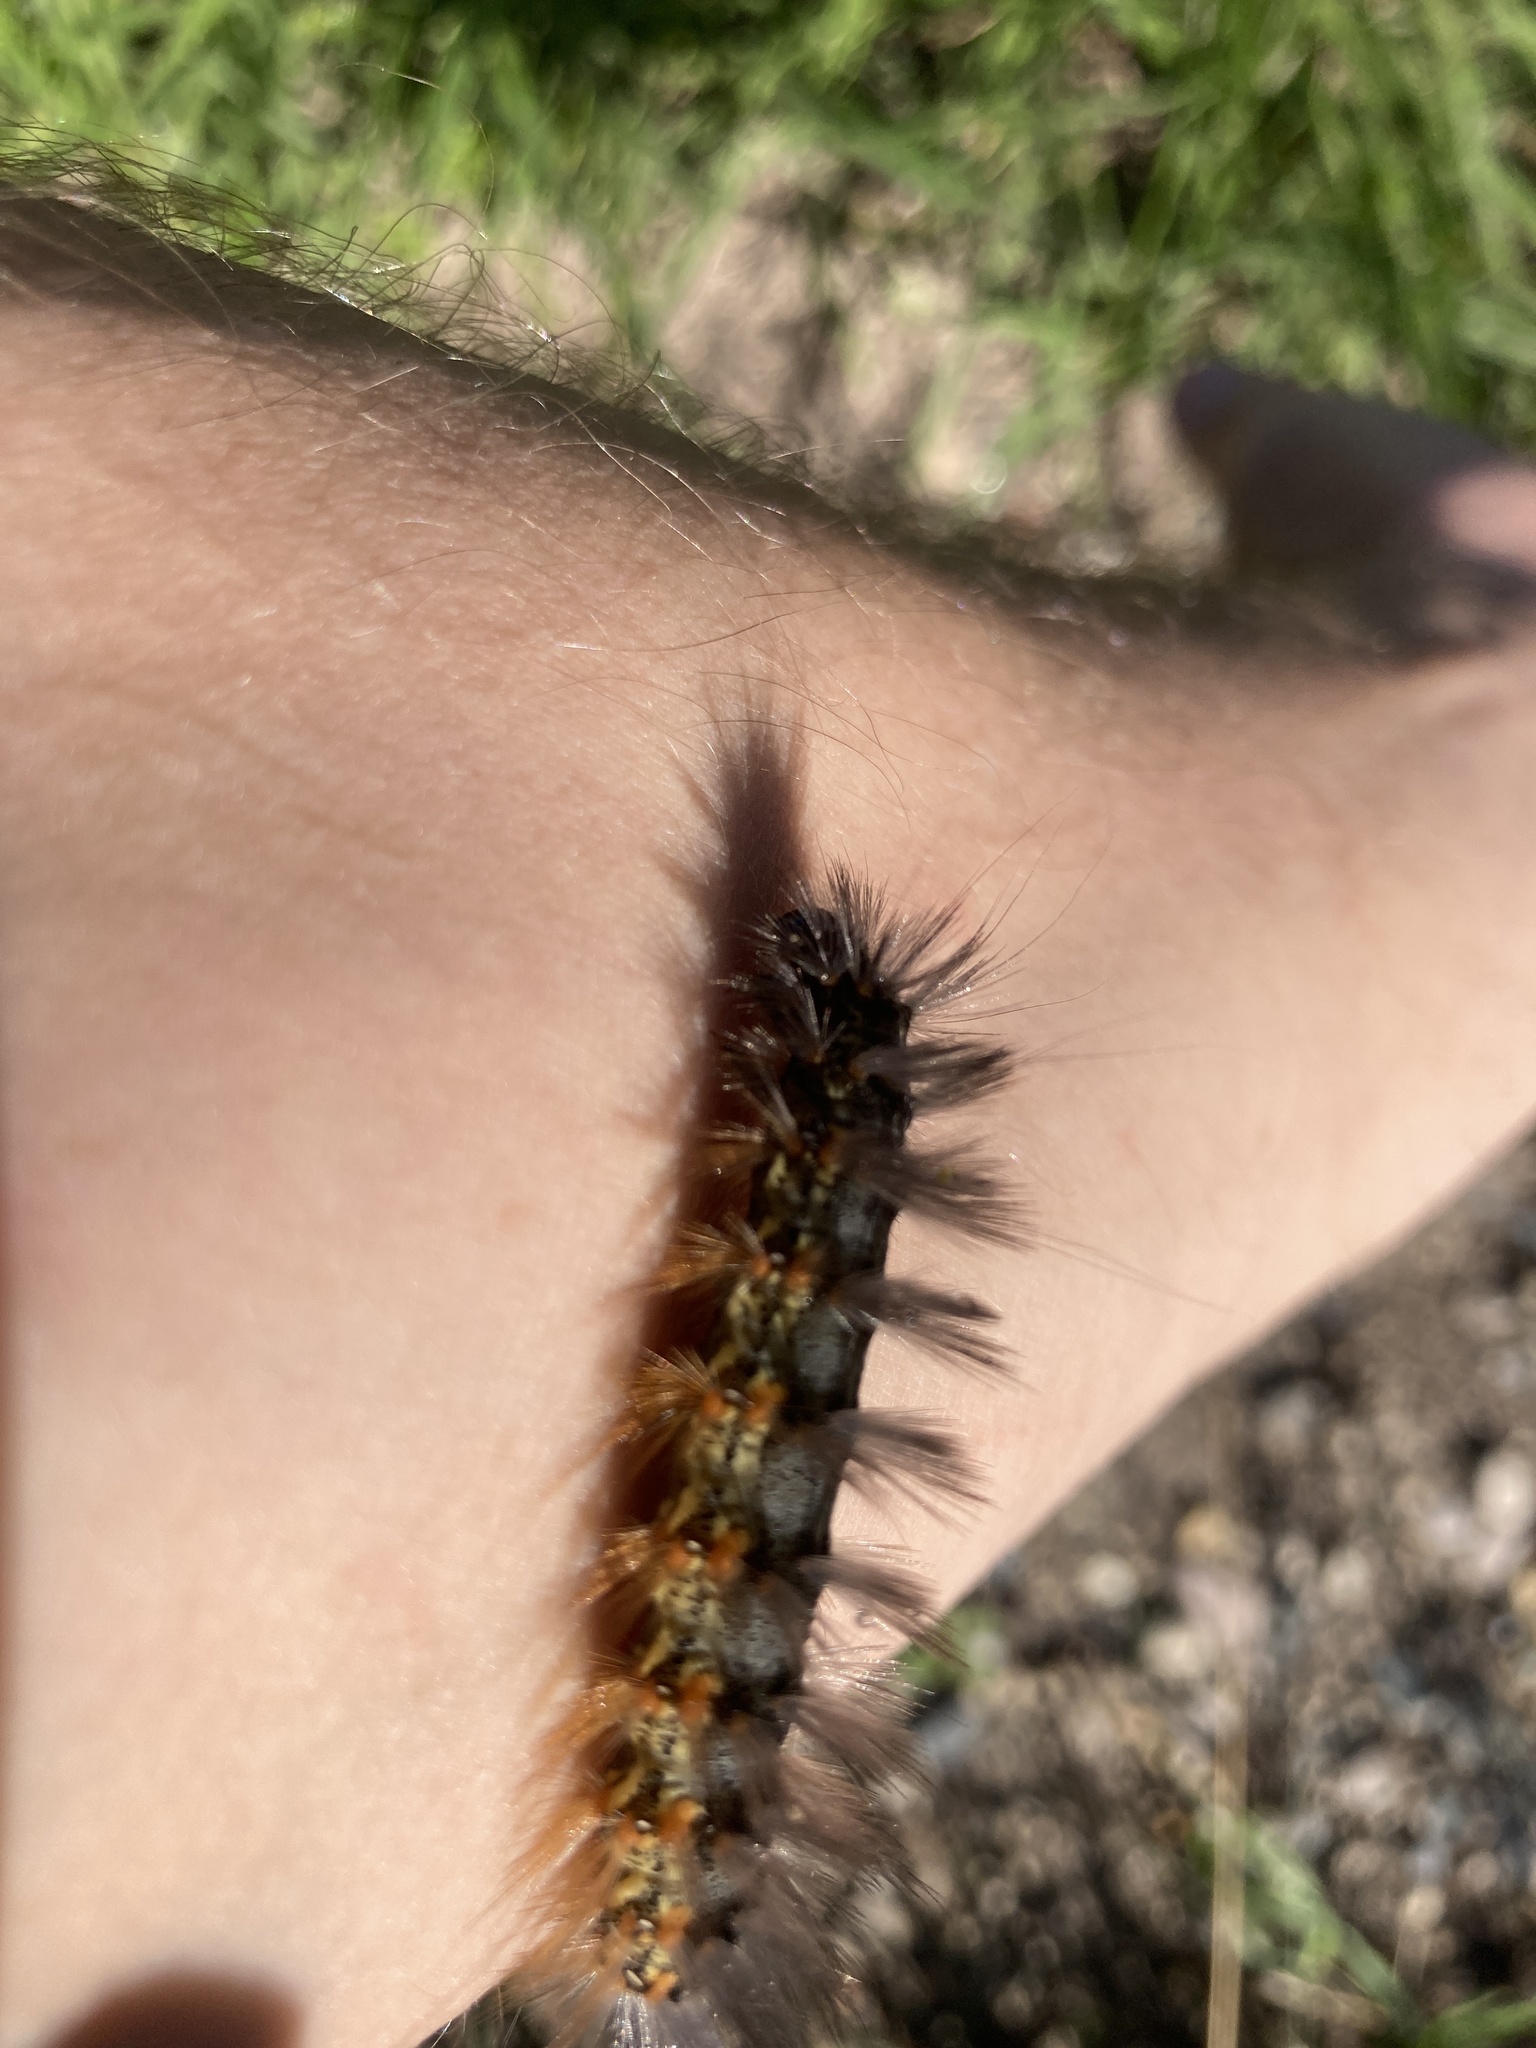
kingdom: Animalia
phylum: Arthropoda
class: Insecta
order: Lepidoptera
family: Erebidae
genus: Estigmene
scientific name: Estigmene acrea
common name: Salt marsh moth
